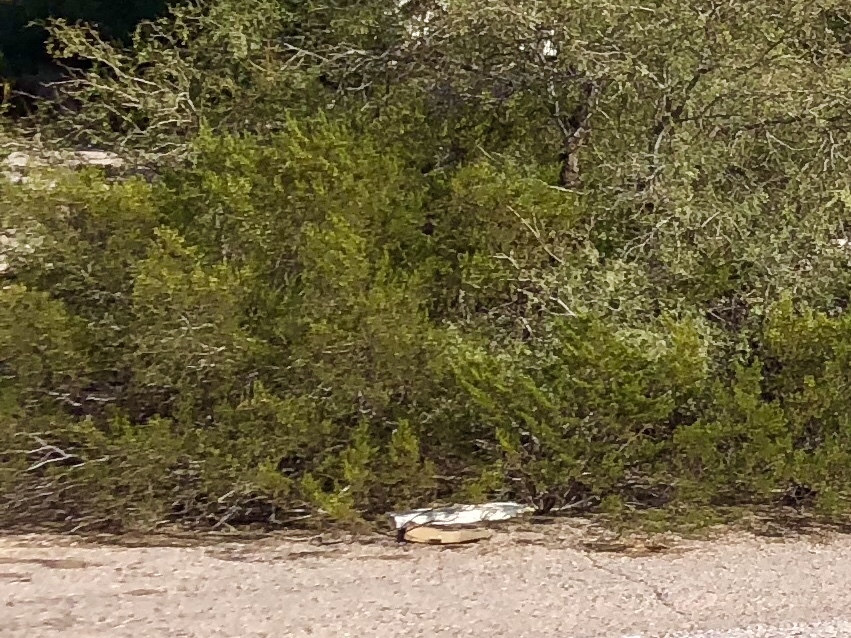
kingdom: Plantae
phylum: Tracheophyta
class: Magnoliopsida
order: Zygophyllales
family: Zygophyllaceae
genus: Larrea
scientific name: Larrea tridentata
